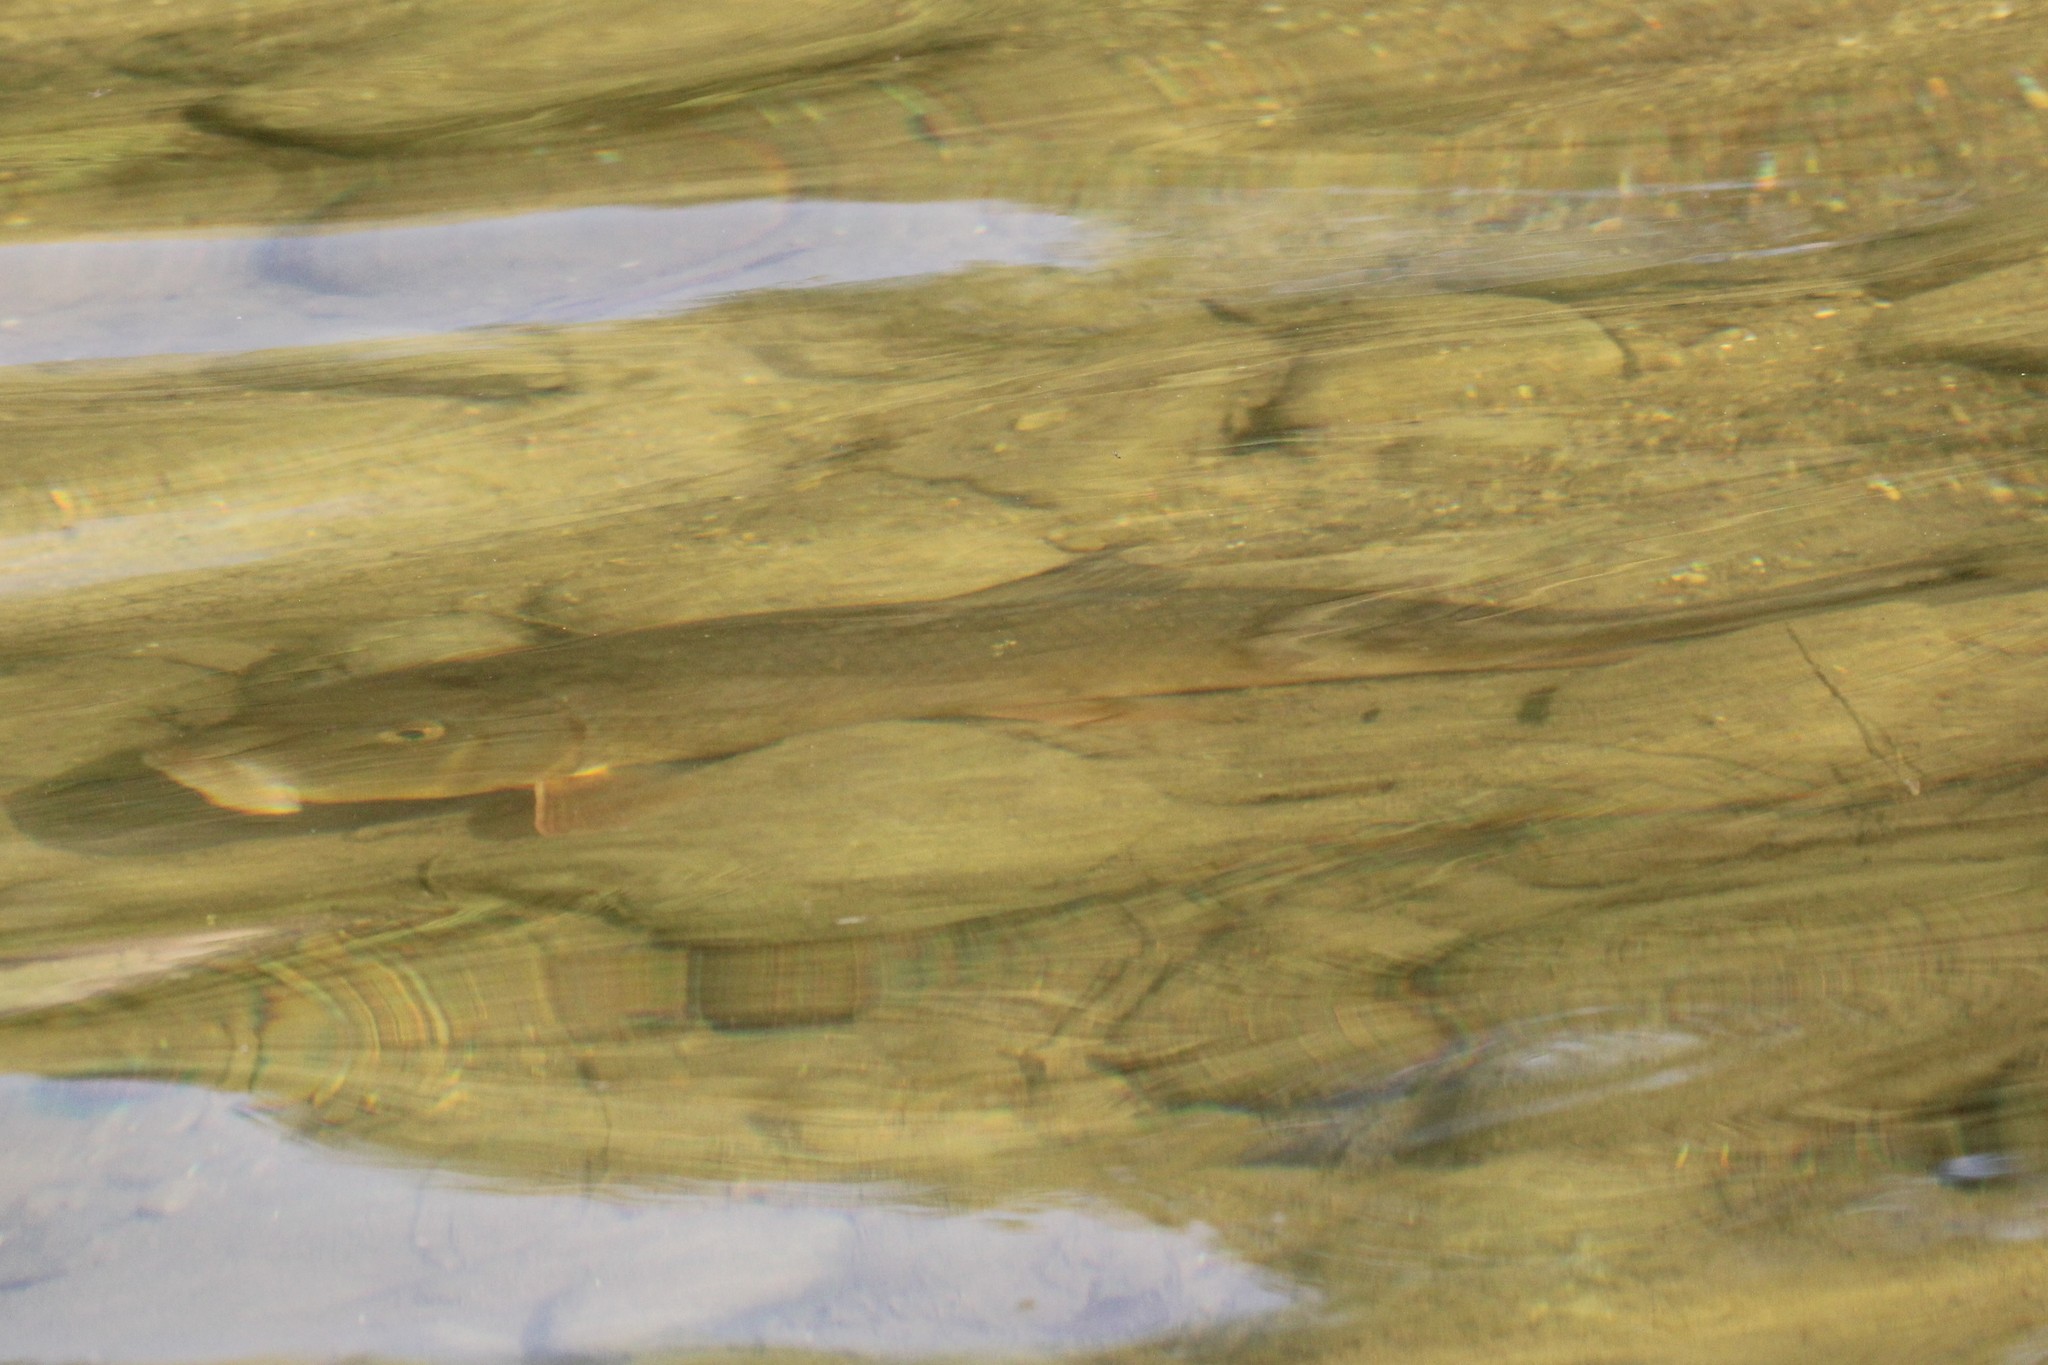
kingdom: Animalia
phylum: Chordata
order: Cypriniformes
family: Catostomidae
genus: Moxostoma
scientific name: Moxostoma anisurum
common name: Silver redhorse
